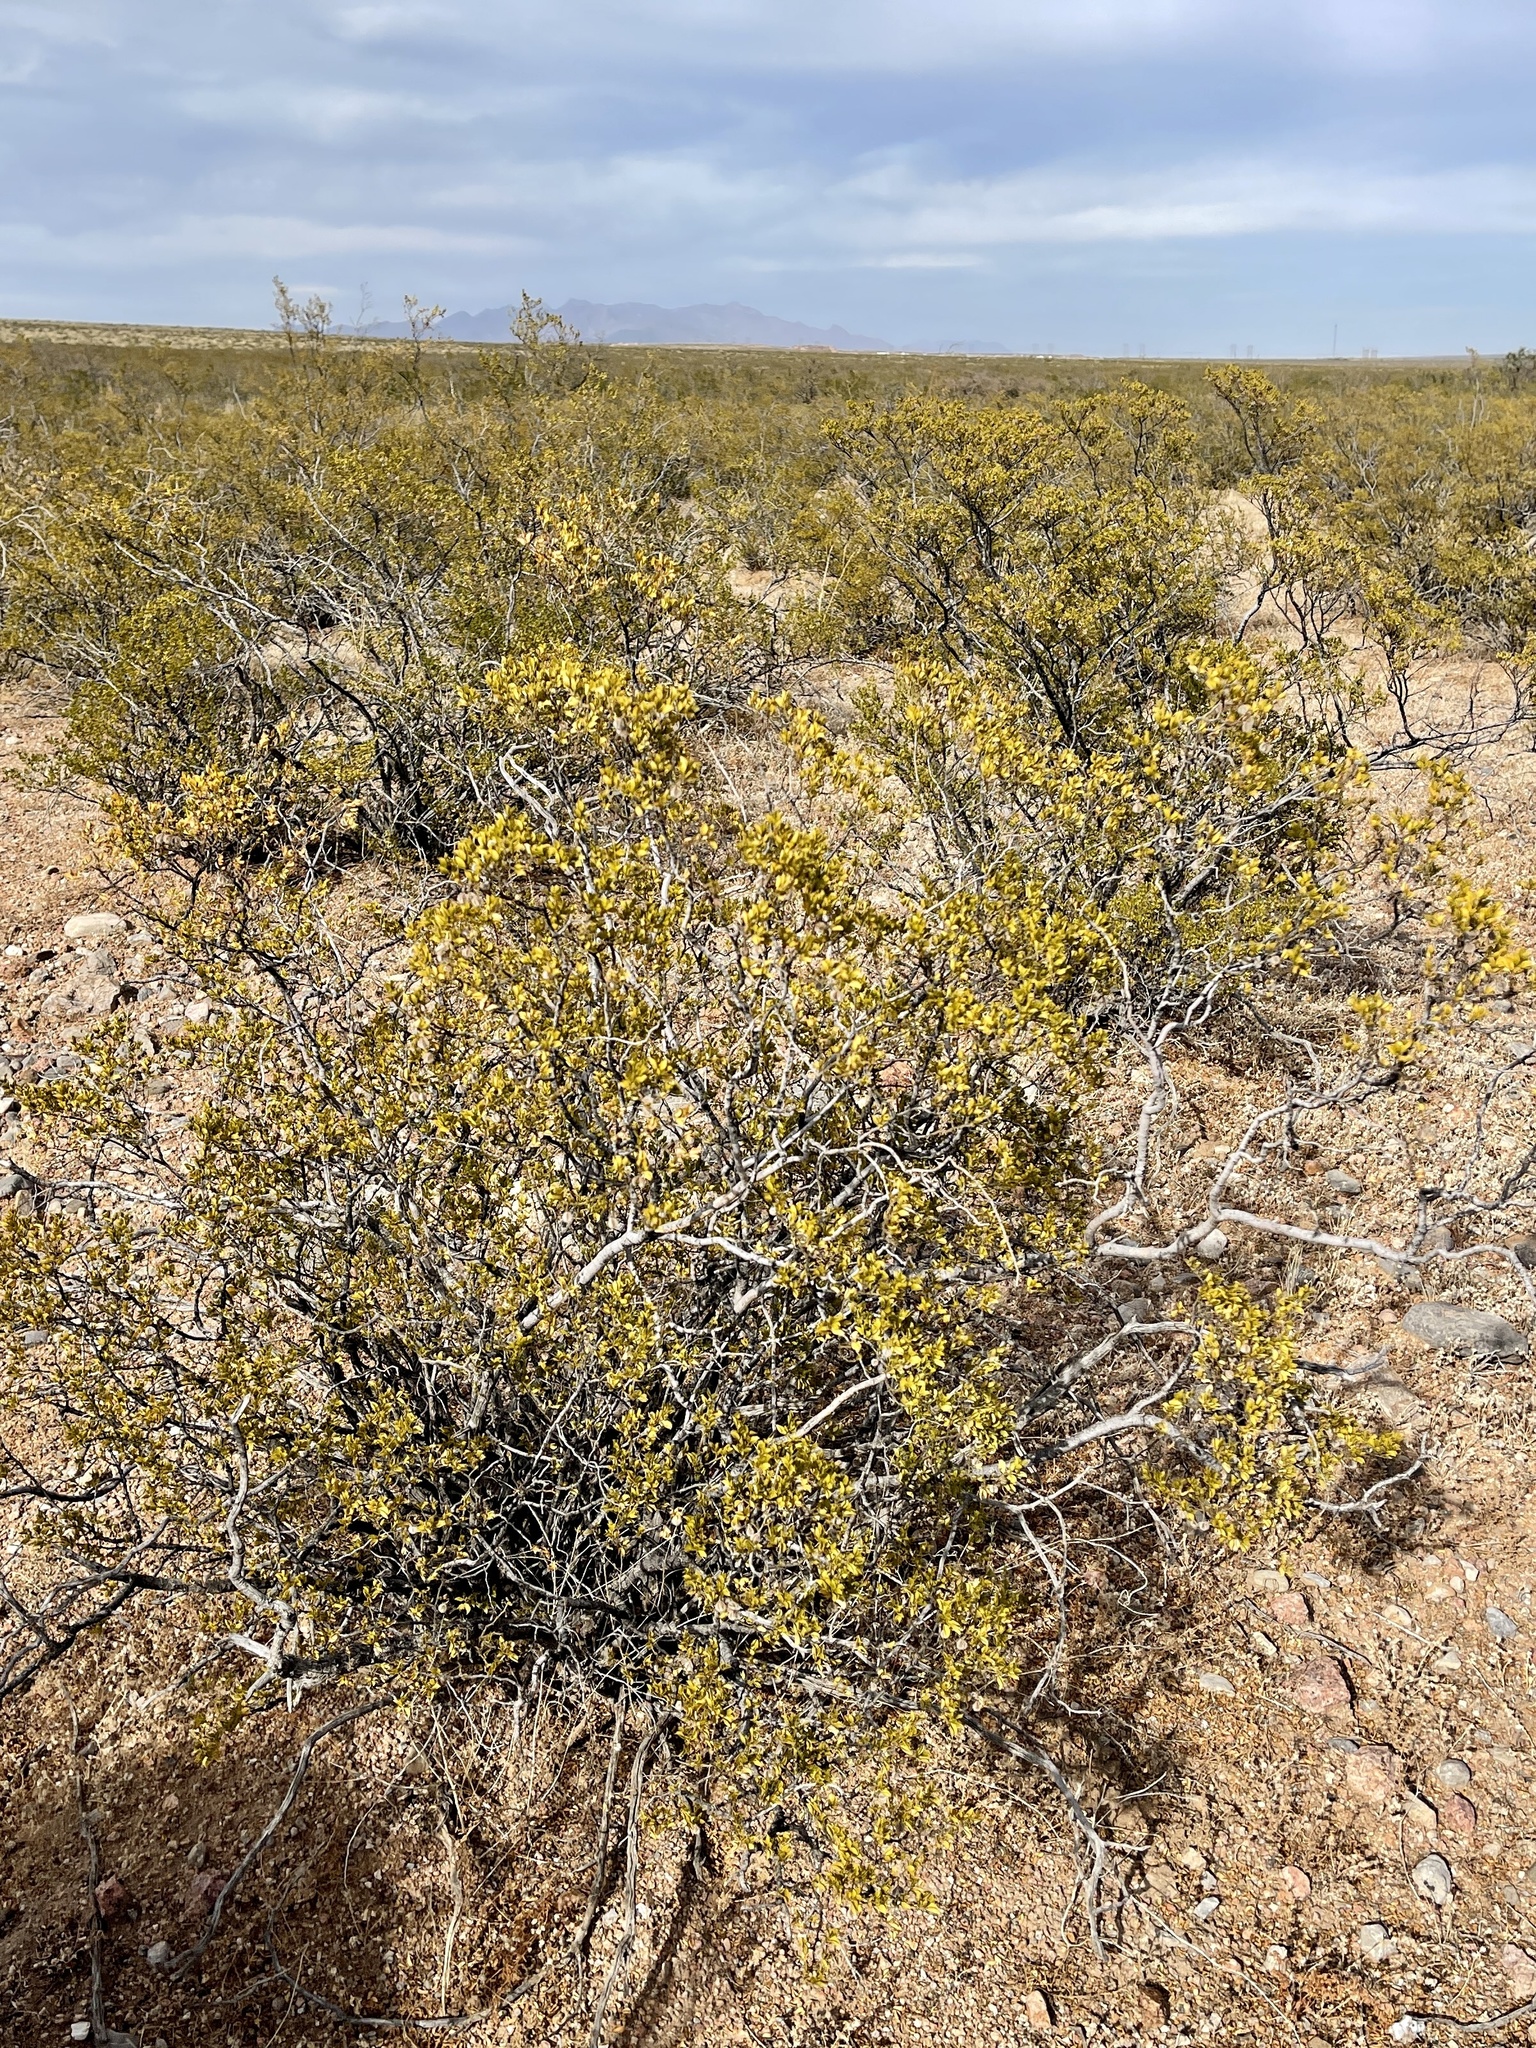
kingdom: Plantae
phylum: Tracheophyta
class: Magnoliopsida
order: Zygophyllales
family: Zygophyllaceae
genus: Larrea
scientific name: Larrea tridentata
